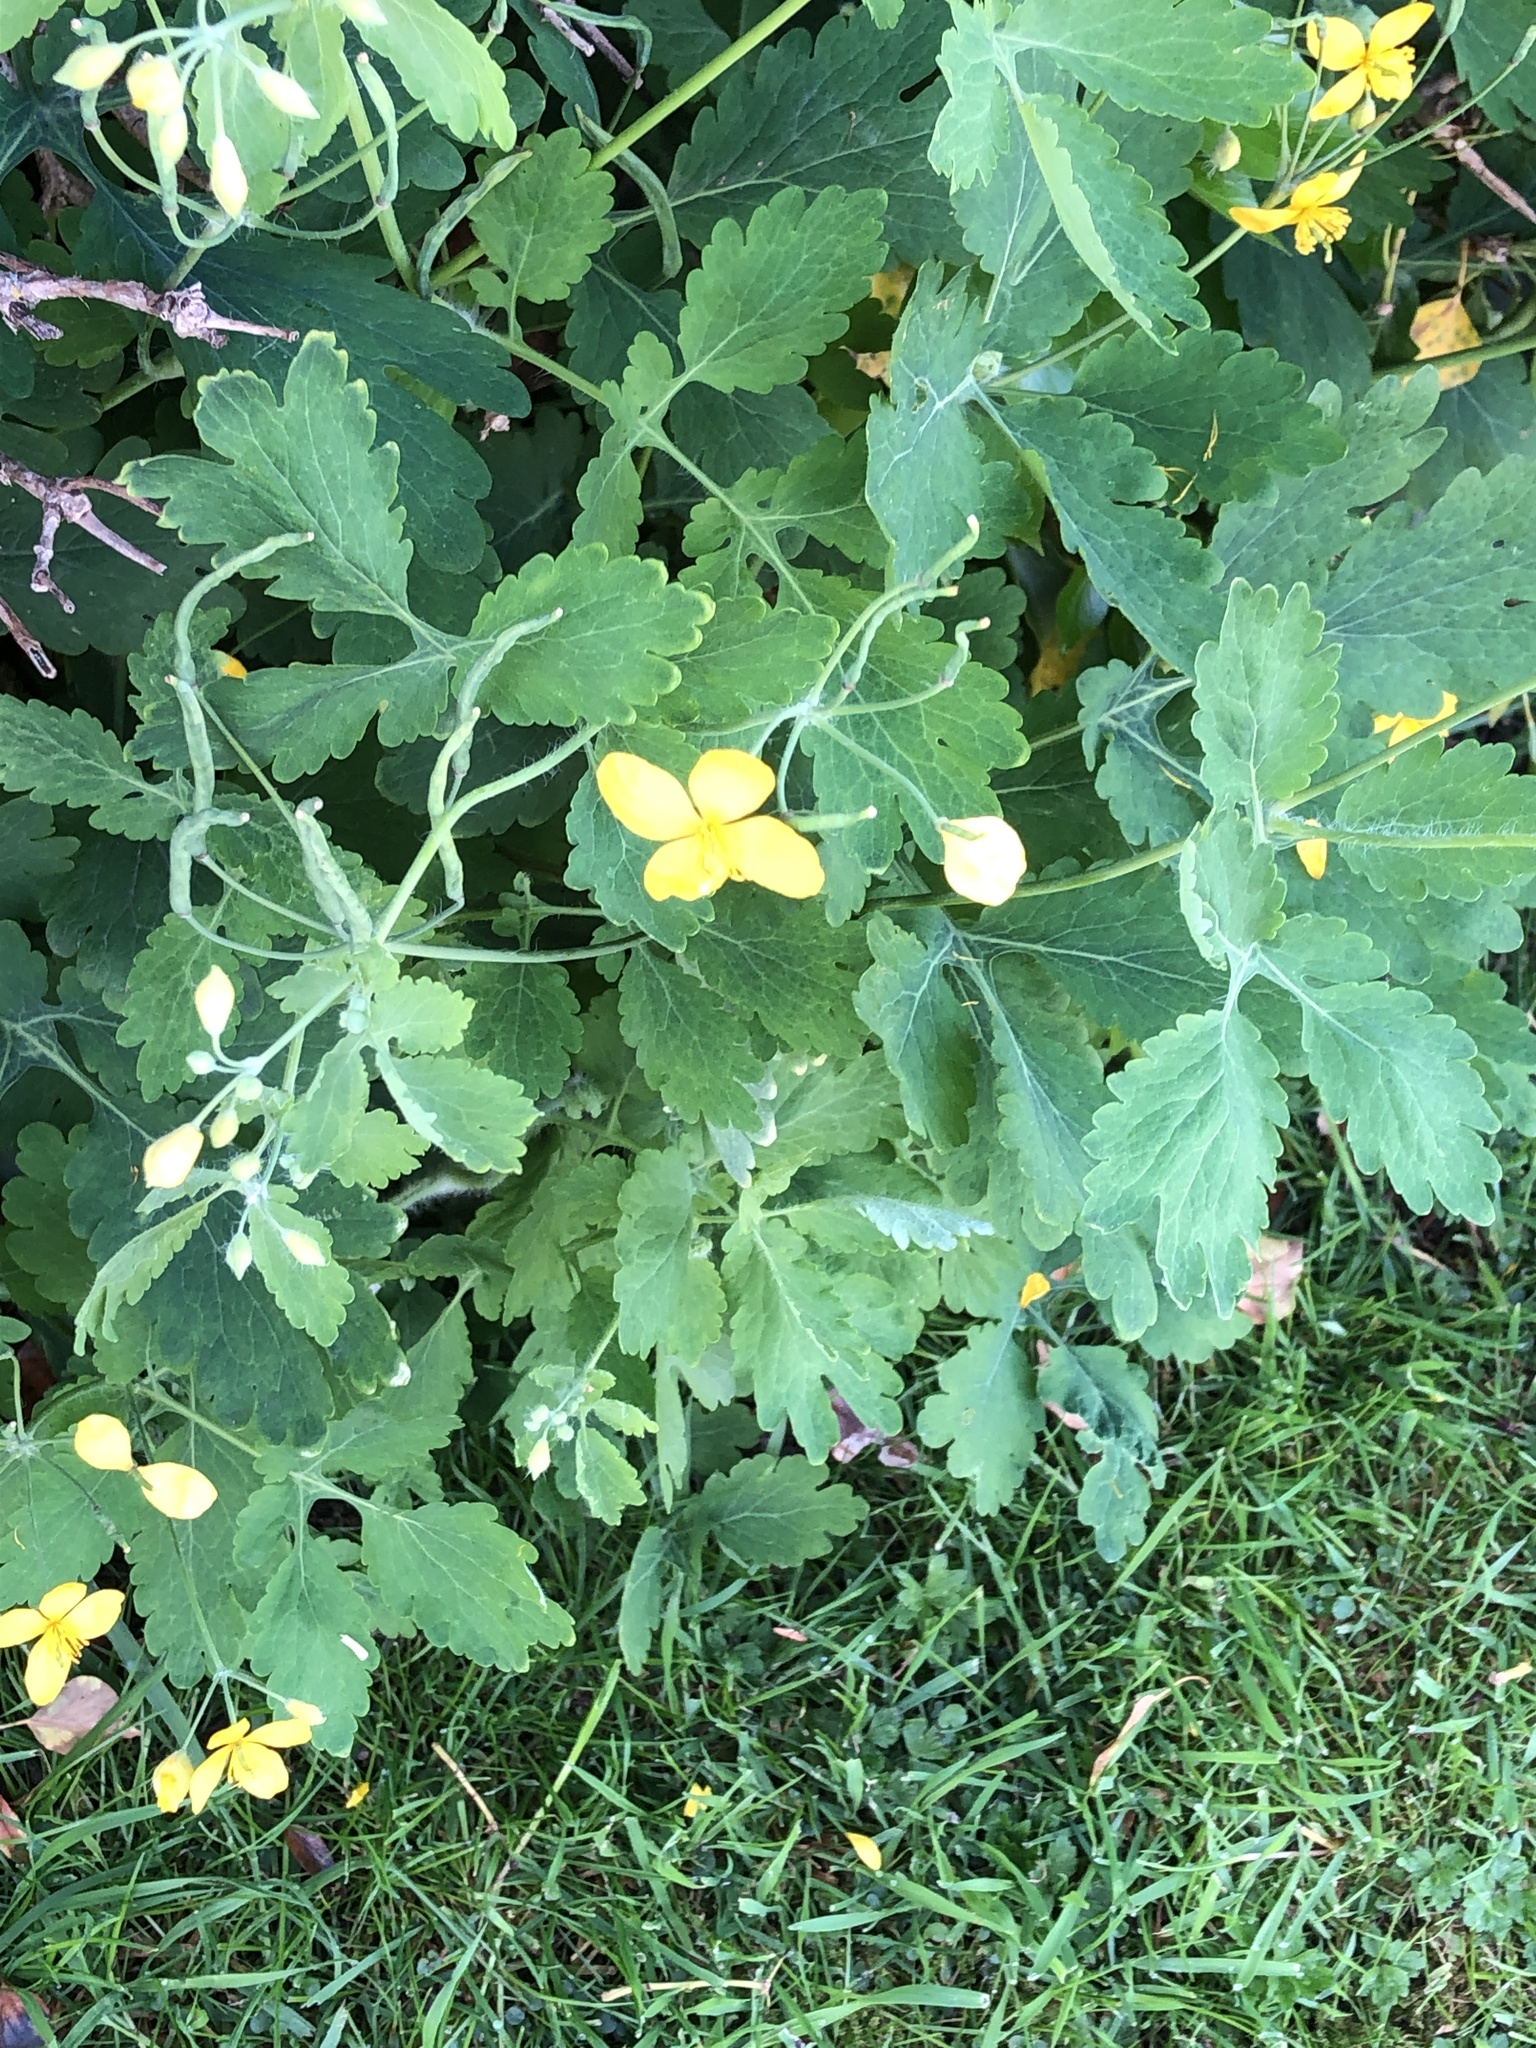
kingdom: Plantae
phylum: Tracheophyta
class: Magnoliopsida
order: Ranunculales
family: Papaveraceae
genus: Chelidonium
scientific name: Chelidonium majus
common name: Greater celandine
